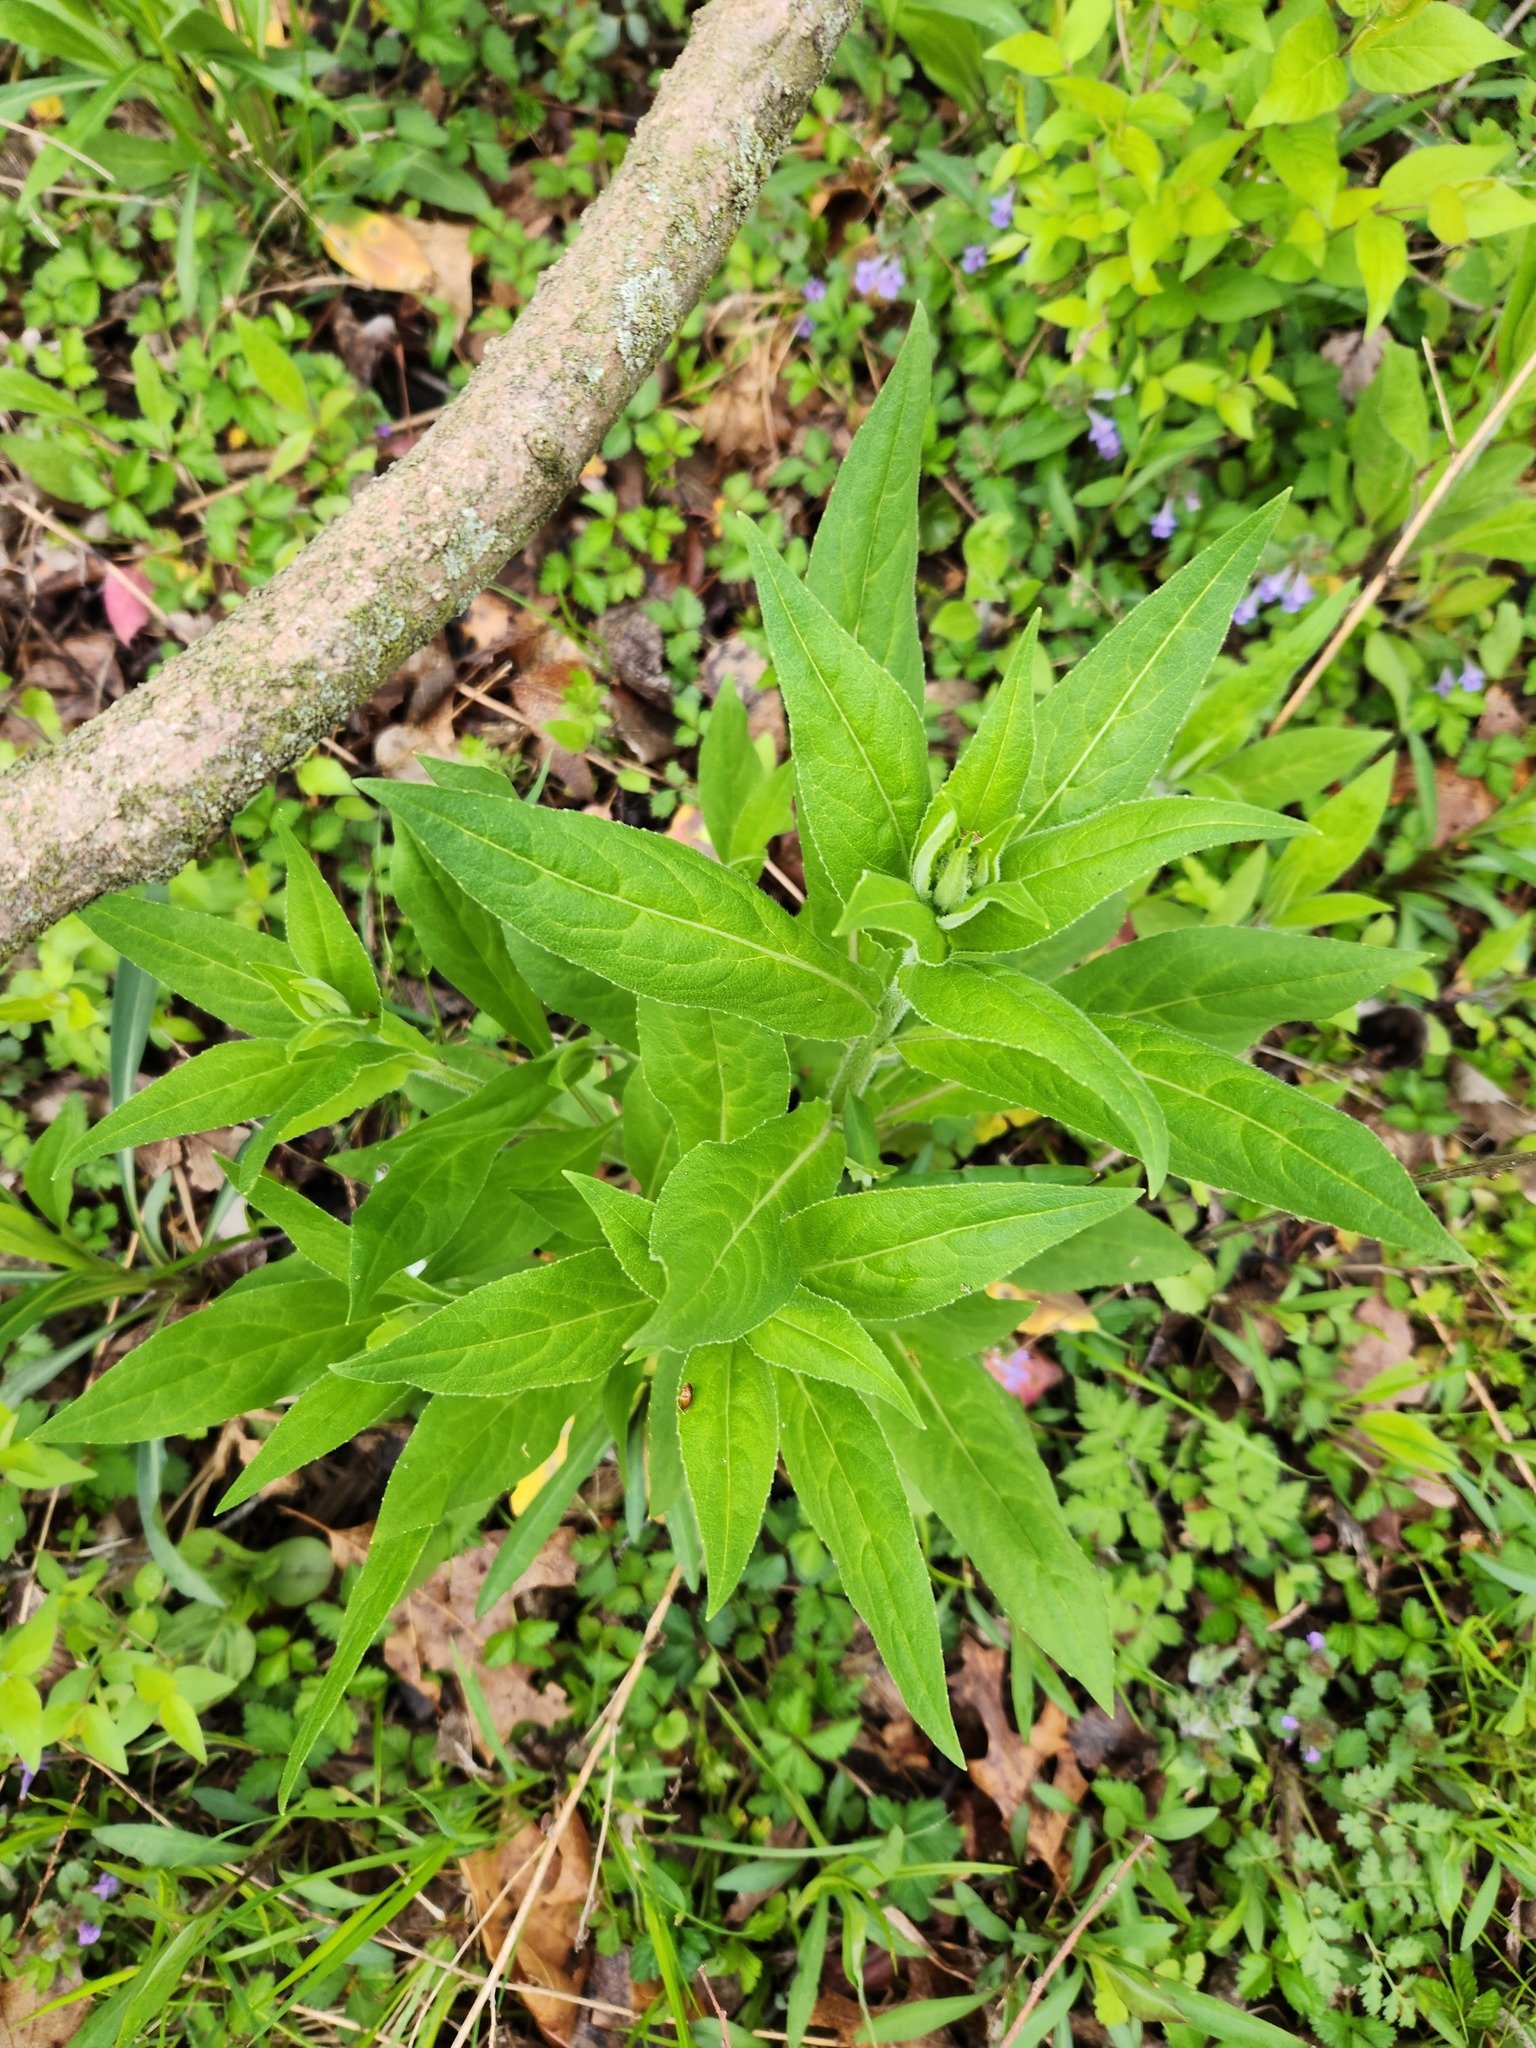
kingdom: Plantae
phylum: Tracheophyta
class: Magnoliopsida
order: Brassicales
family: Brassicaceae
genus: Hesperis
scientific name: Hesperis matronalis
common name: Dame's-violet
